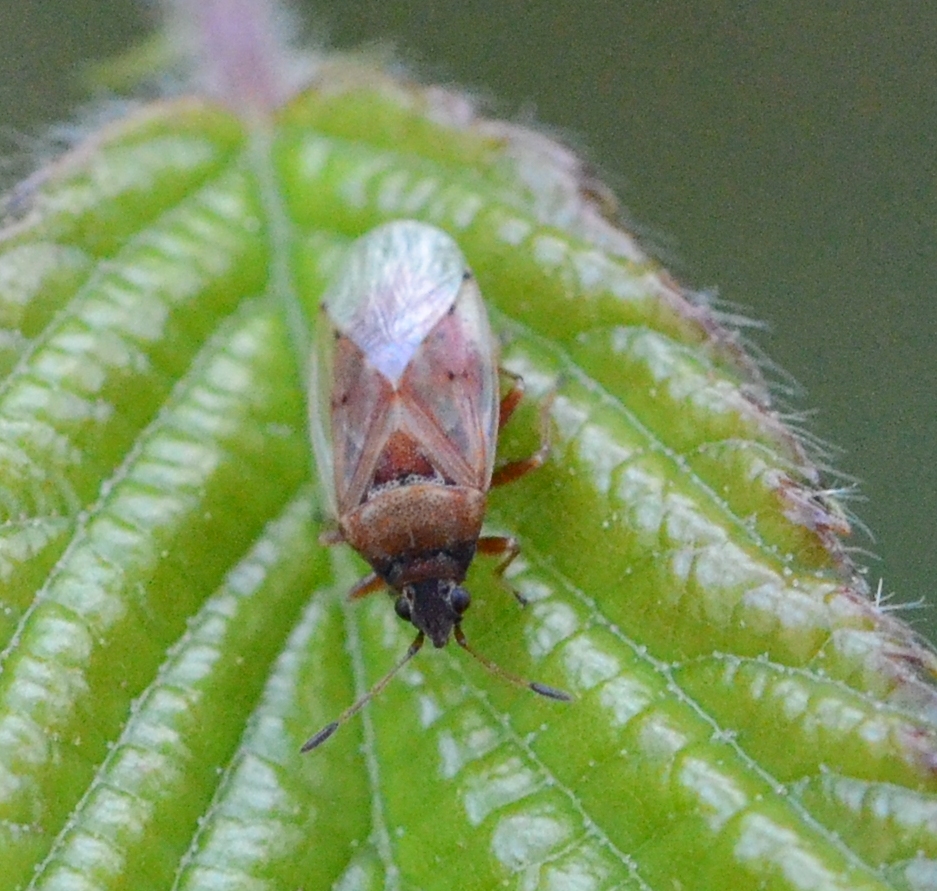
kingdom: Animalia
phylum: Arthropoda
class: Insecta
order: Hemiptera
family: Lygaeidae
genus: Kleidocerys
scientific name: Kleidocerys resedae
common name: Birch catkin bug
